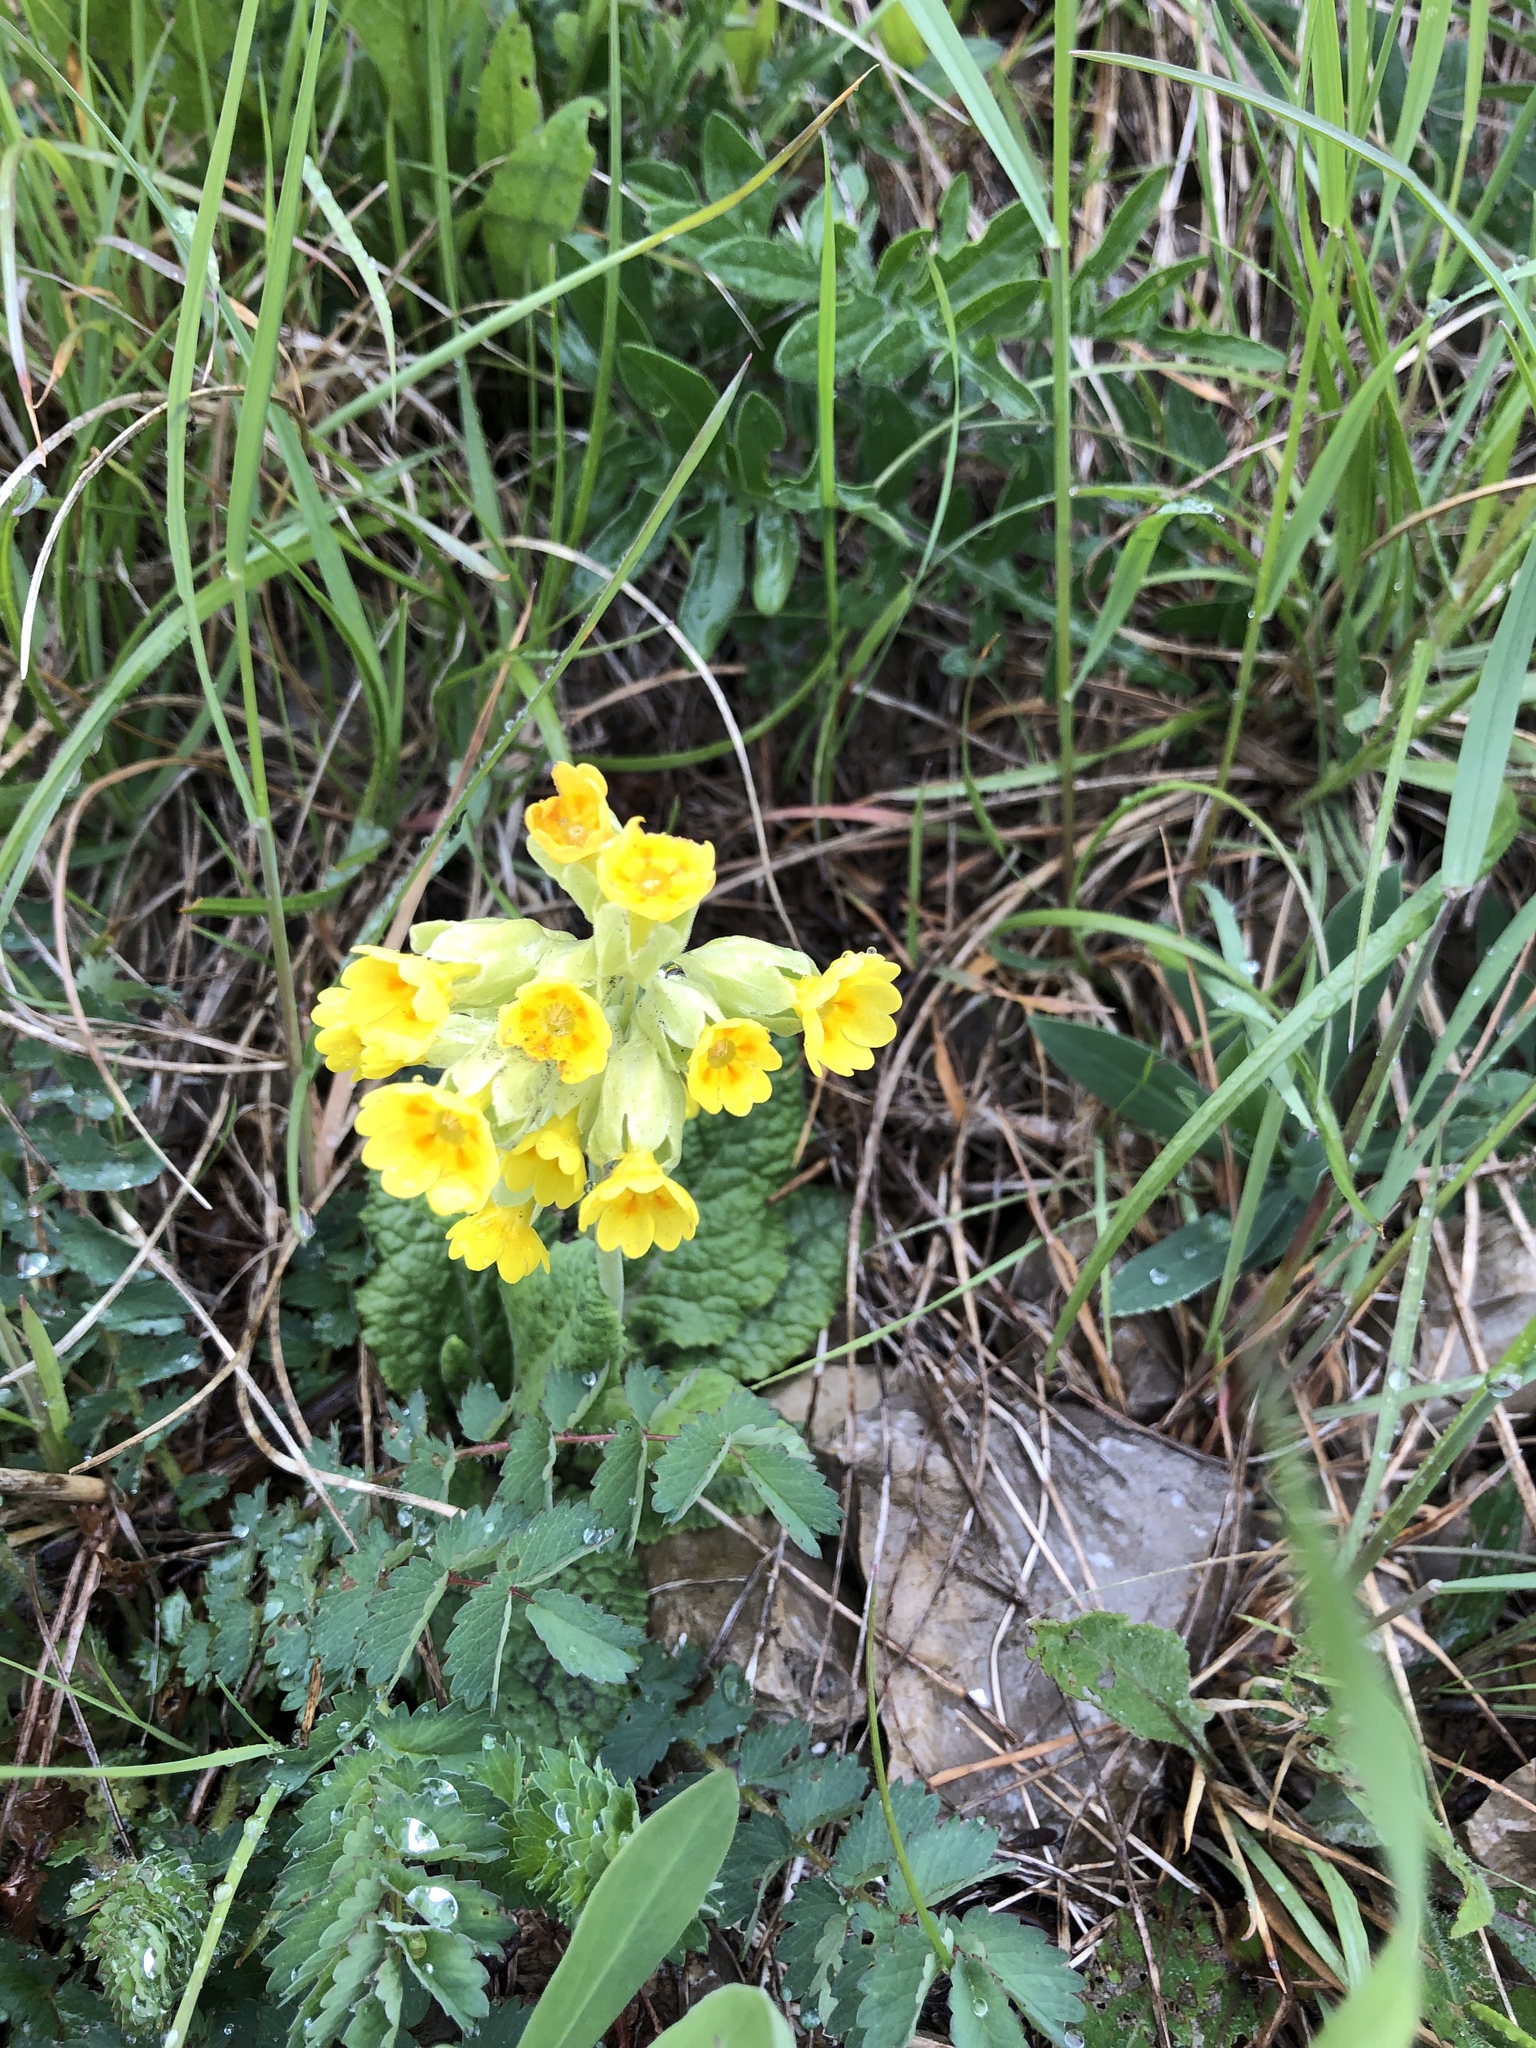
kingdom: Plantae
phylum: Tracheophyta
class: Magnoliopsida
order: Ericales
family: Primulaceae
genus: Primula
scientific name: Primula veris
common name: Cowslip
